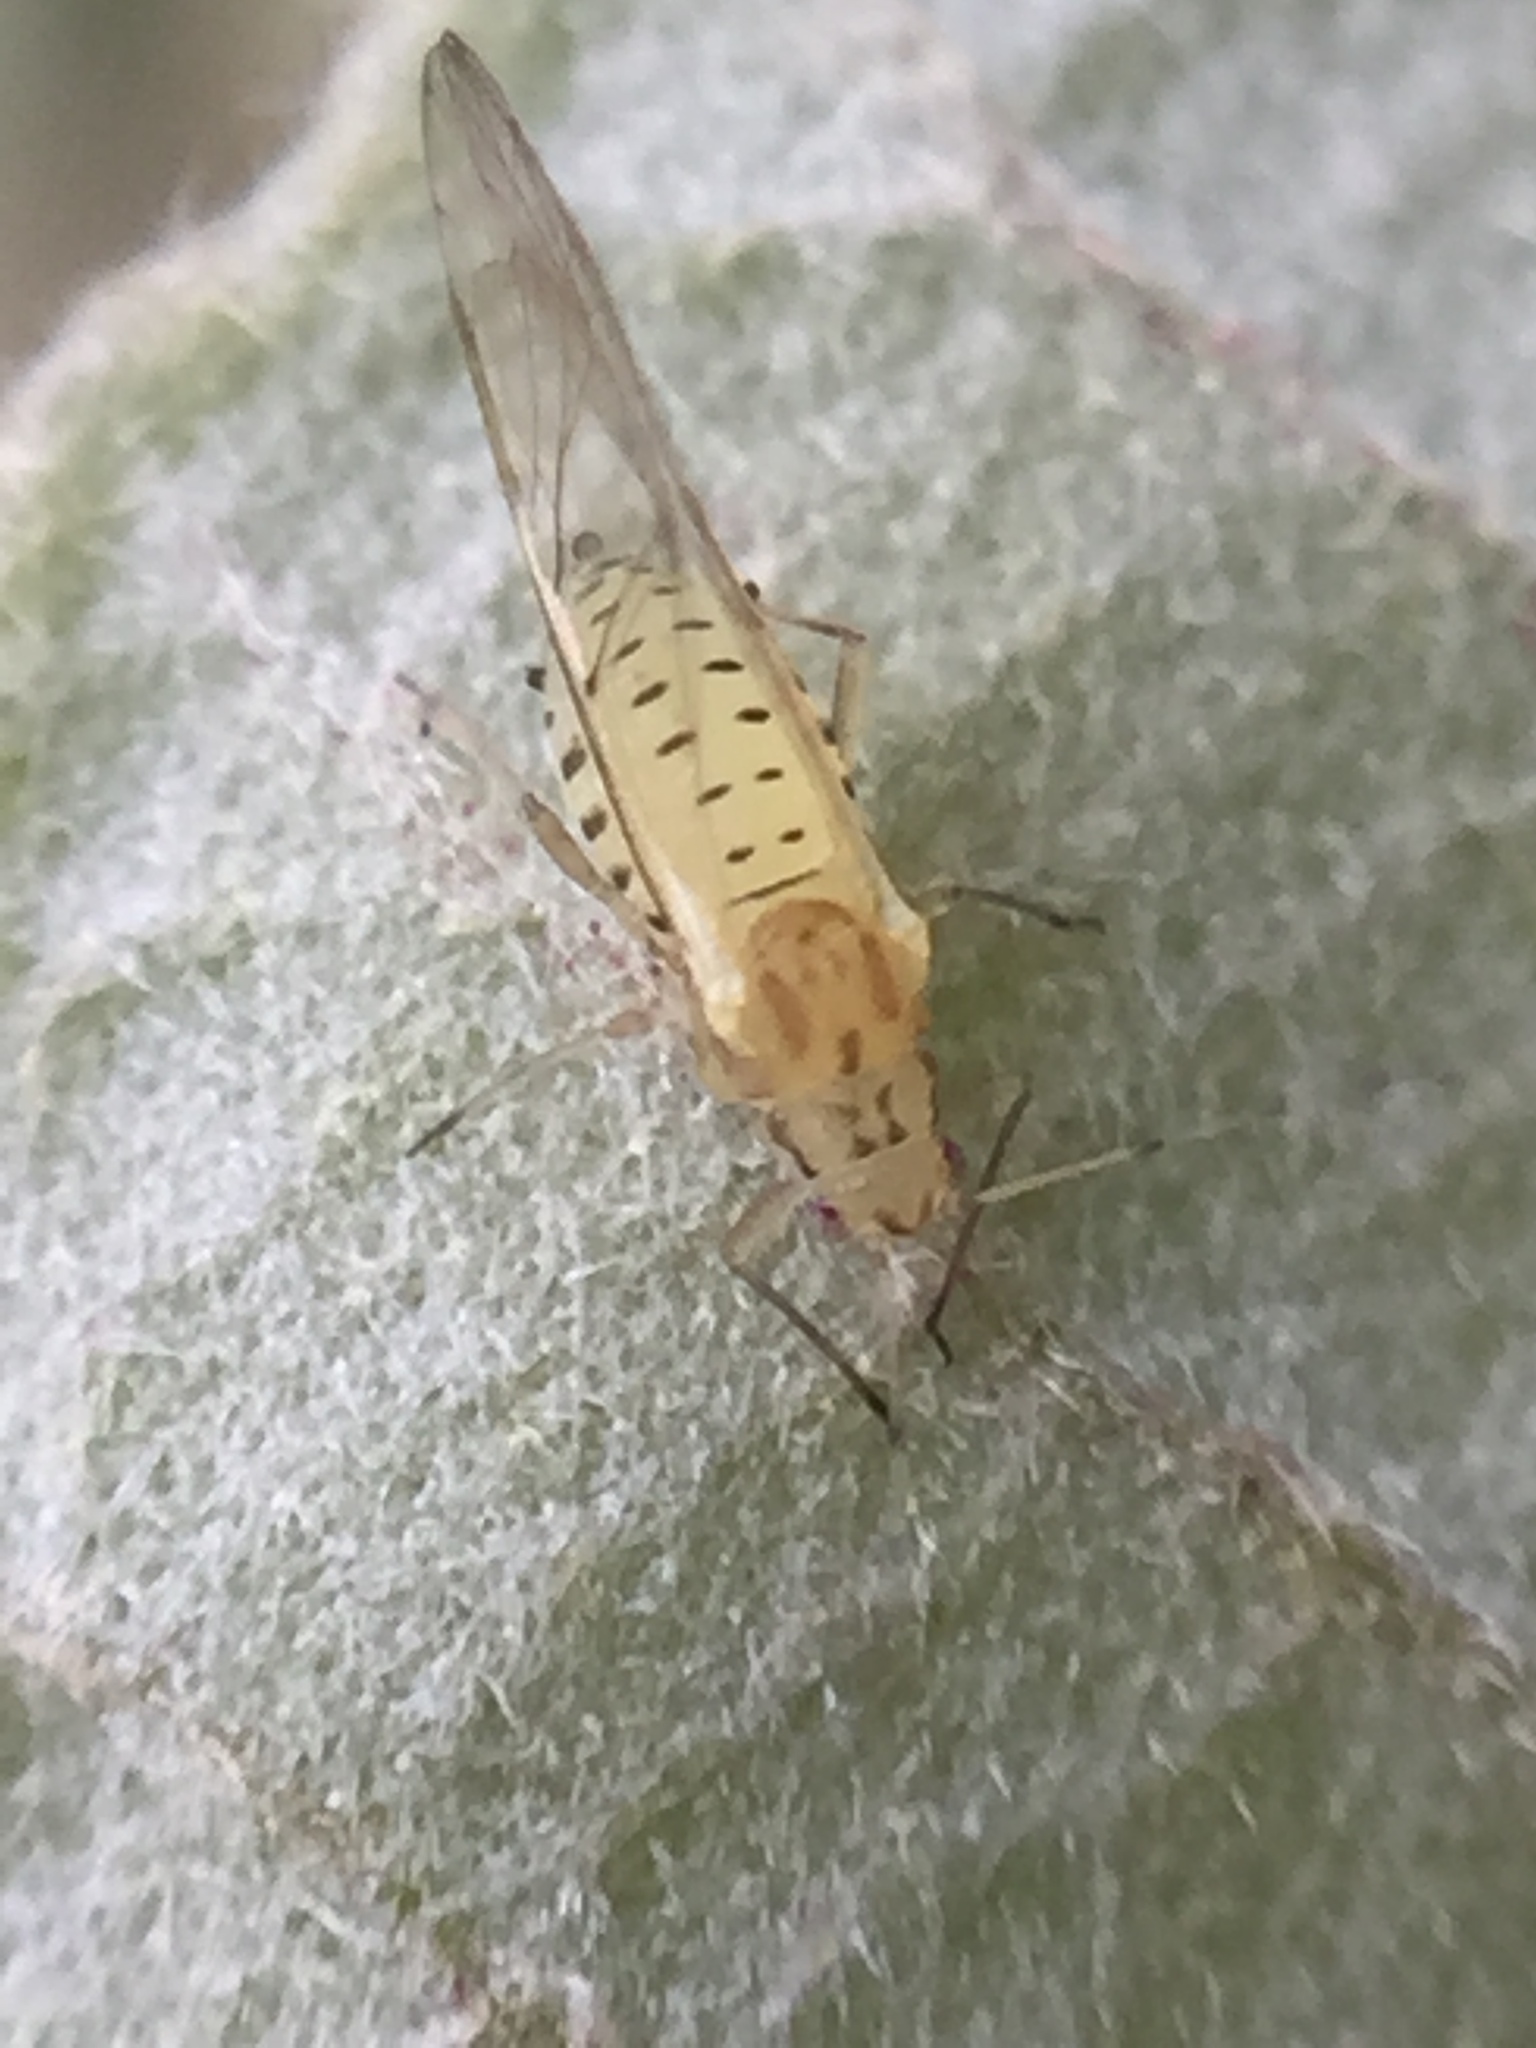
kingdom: Animalia
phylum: Arthropoda
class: Insecta
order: Hemiptera
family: Aphididae
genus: Myzocallis
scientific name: Myzocallis boerneri
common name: Turkey oak aphid
